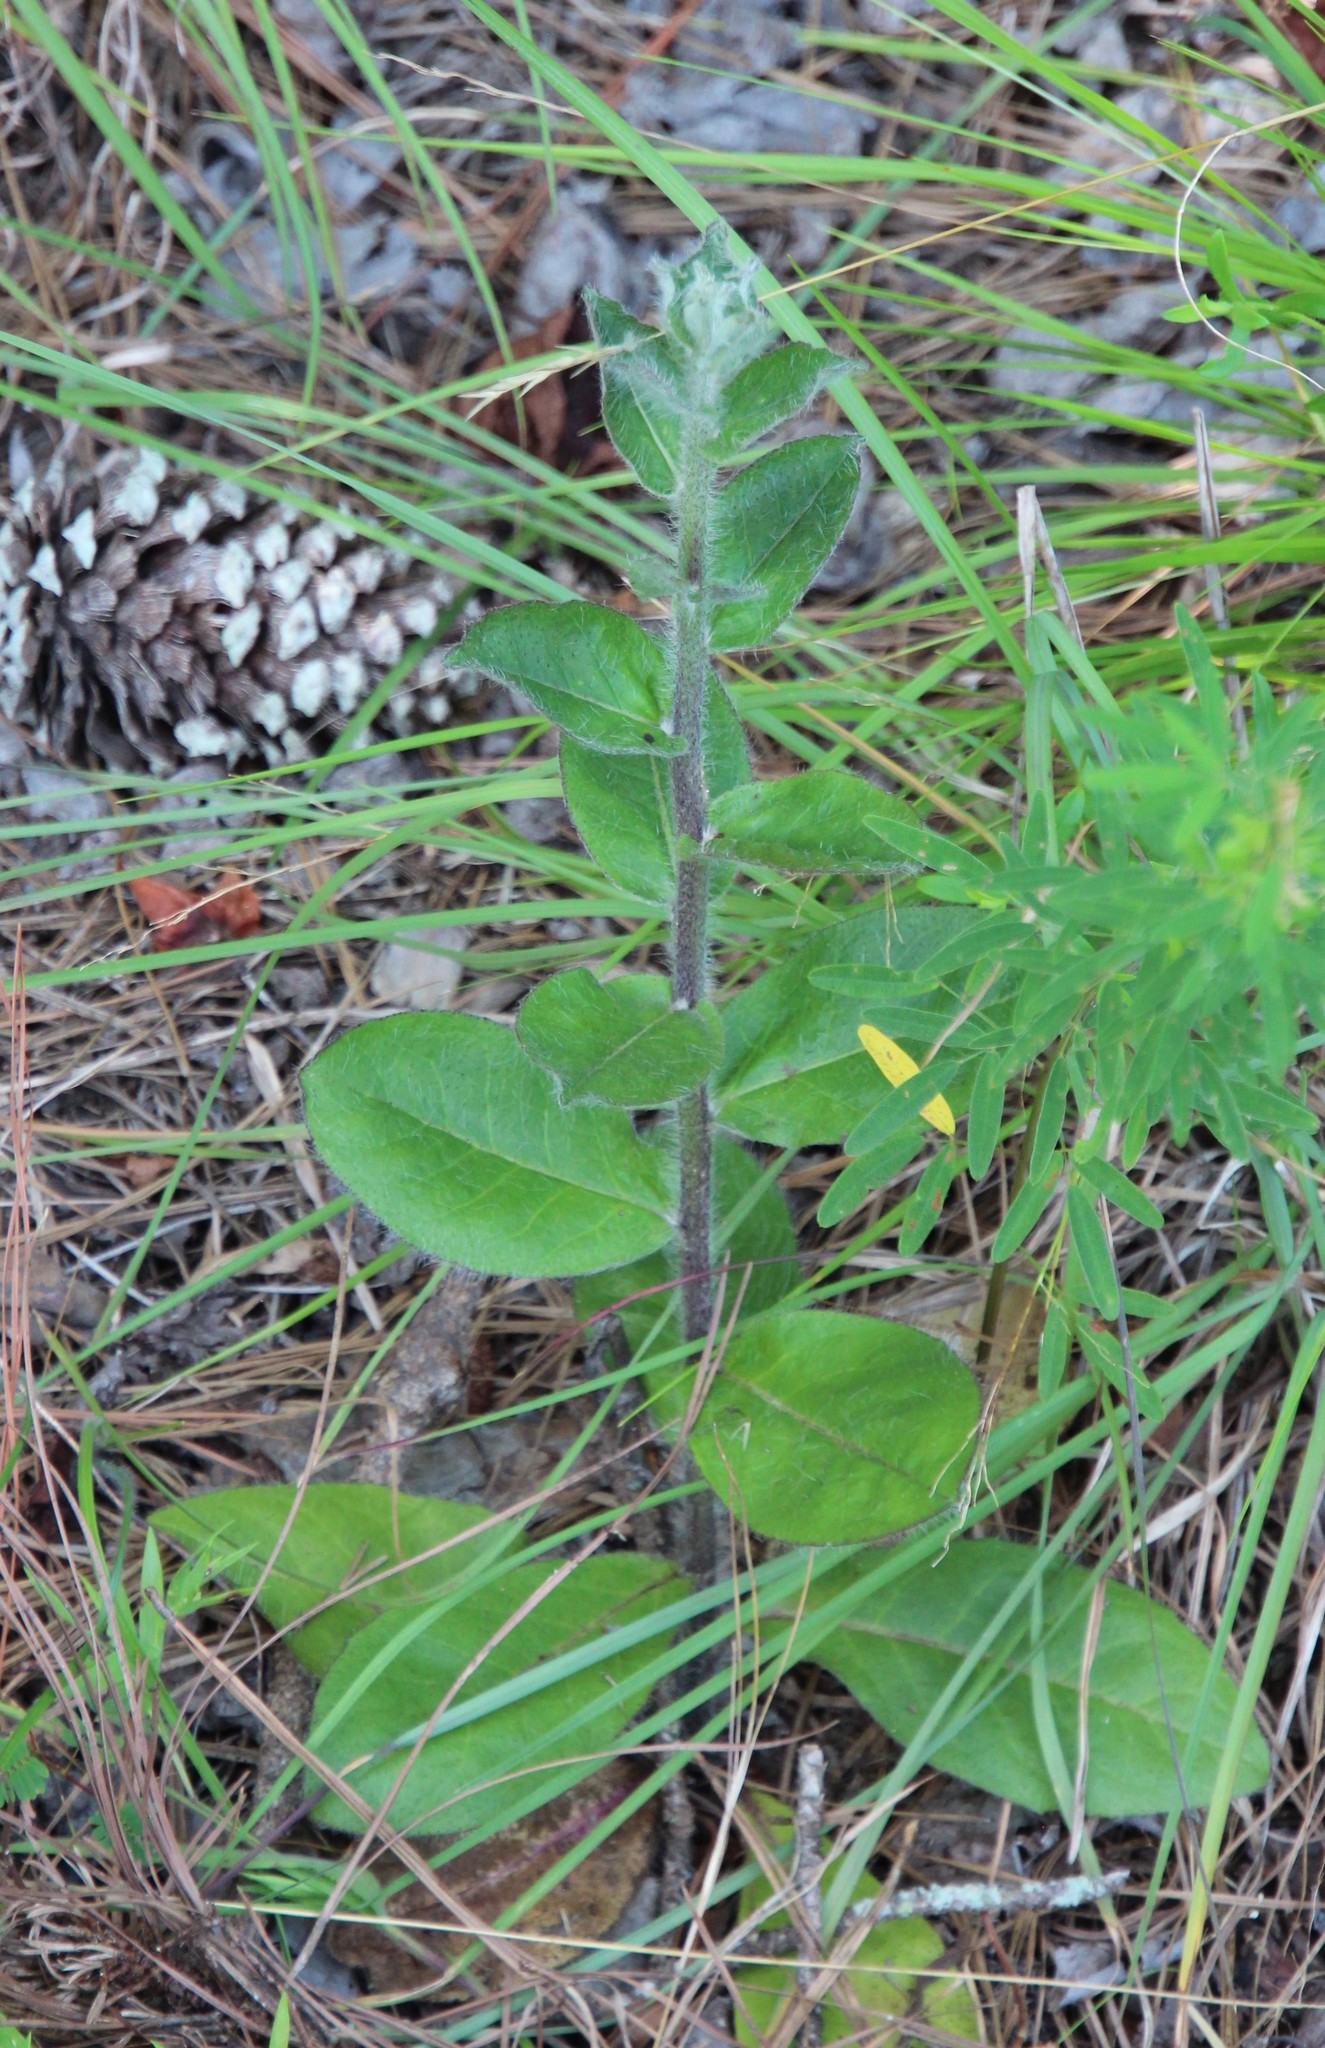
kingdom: Plantae
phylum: Tracheophyta
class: Magnoliopsida
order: Asterales
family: Asteraceae
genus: Hieracium
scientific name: Hieracium gronovii
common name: Beaked hawkweed
